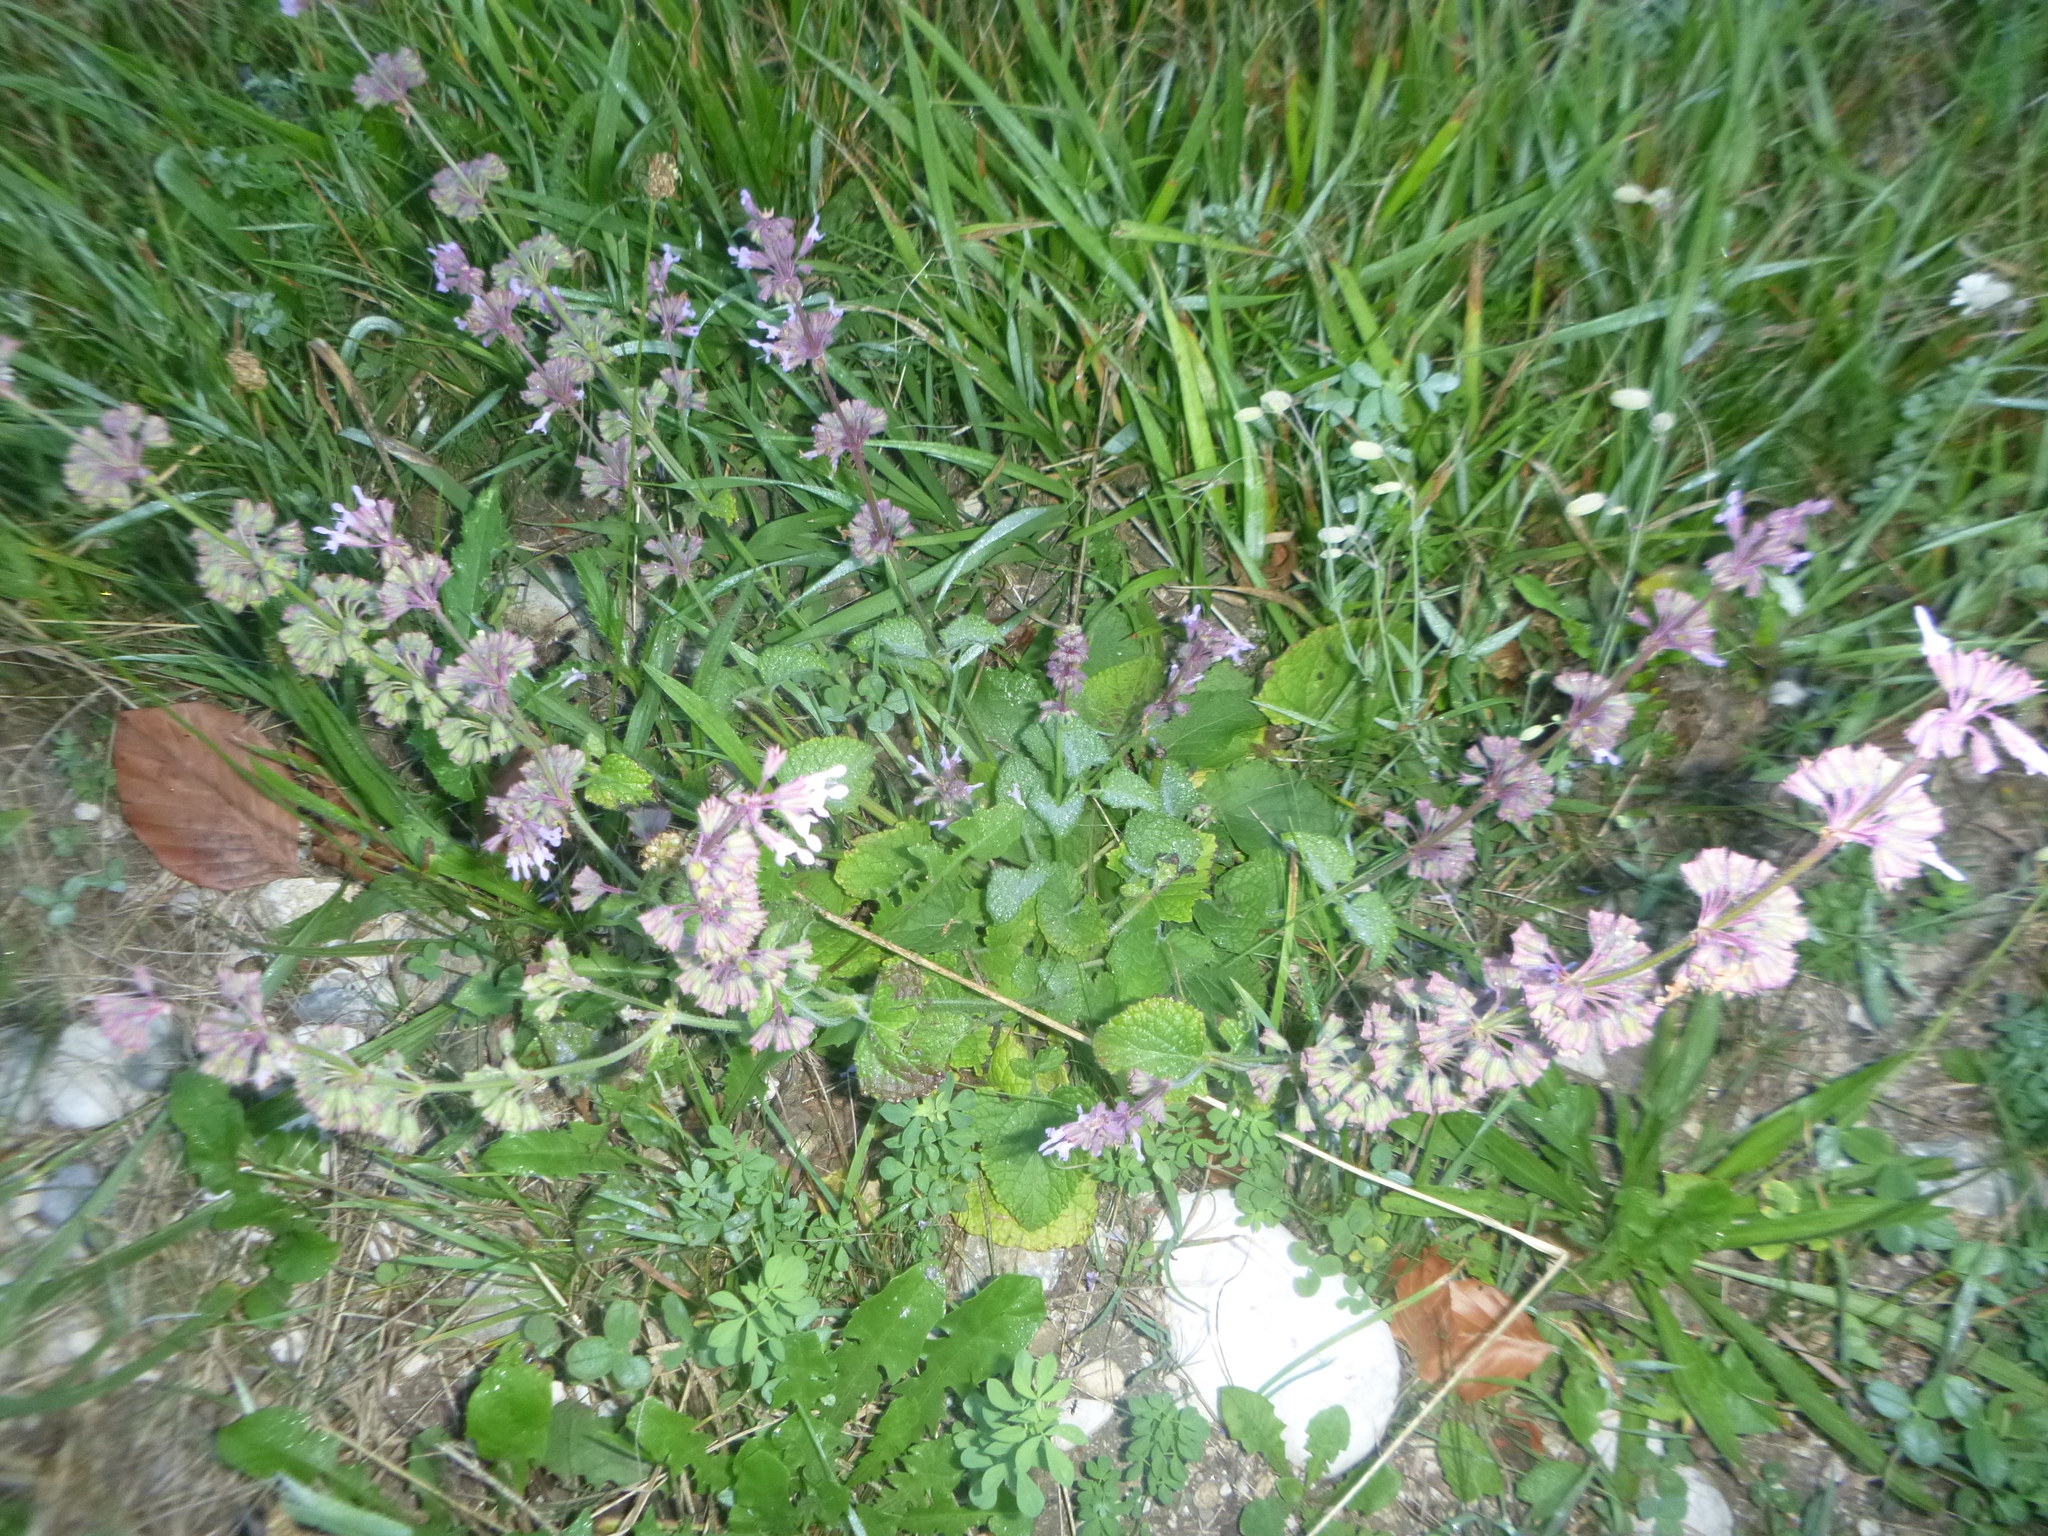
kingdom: Plantae
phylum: Tracheophyta
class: Magnoliopsida
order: Lamiales
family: Lamiaceae
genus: Salvia
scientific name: Salvia verticillata
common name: Whorled clary
